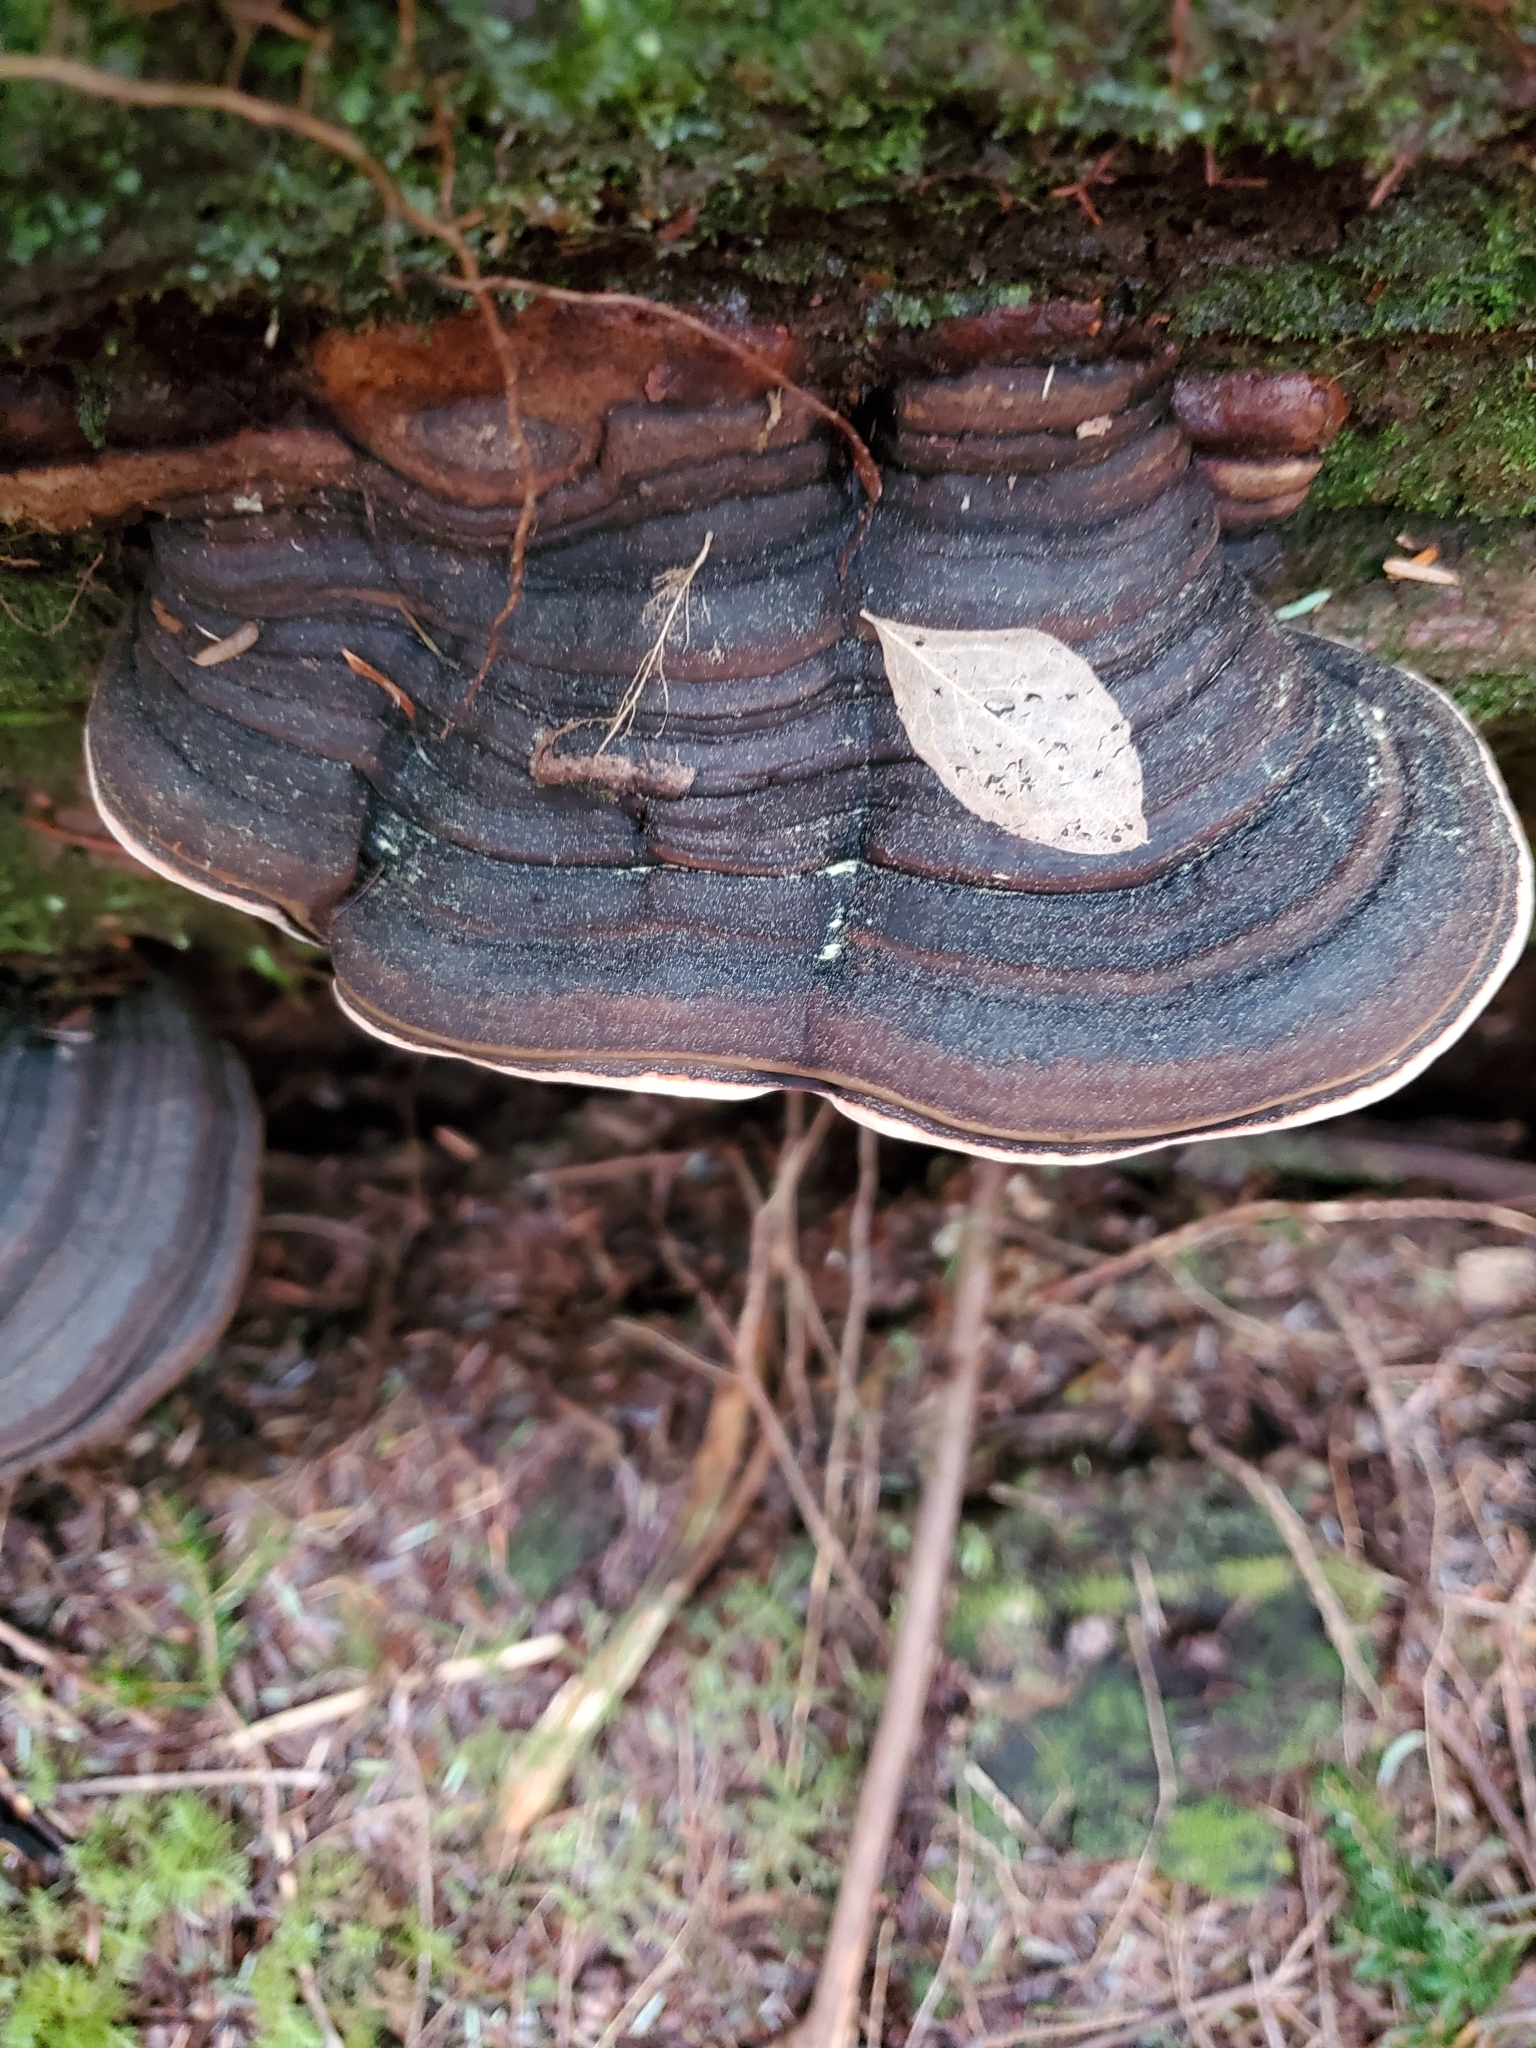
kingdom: Fungi
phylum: Basidiomycota
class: Agaricomycetes
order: Polyporales
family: Fomitopsidaceae
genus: Fomitopsis
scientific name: Fomitopsis ochracea
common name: American brown fomitopsis
